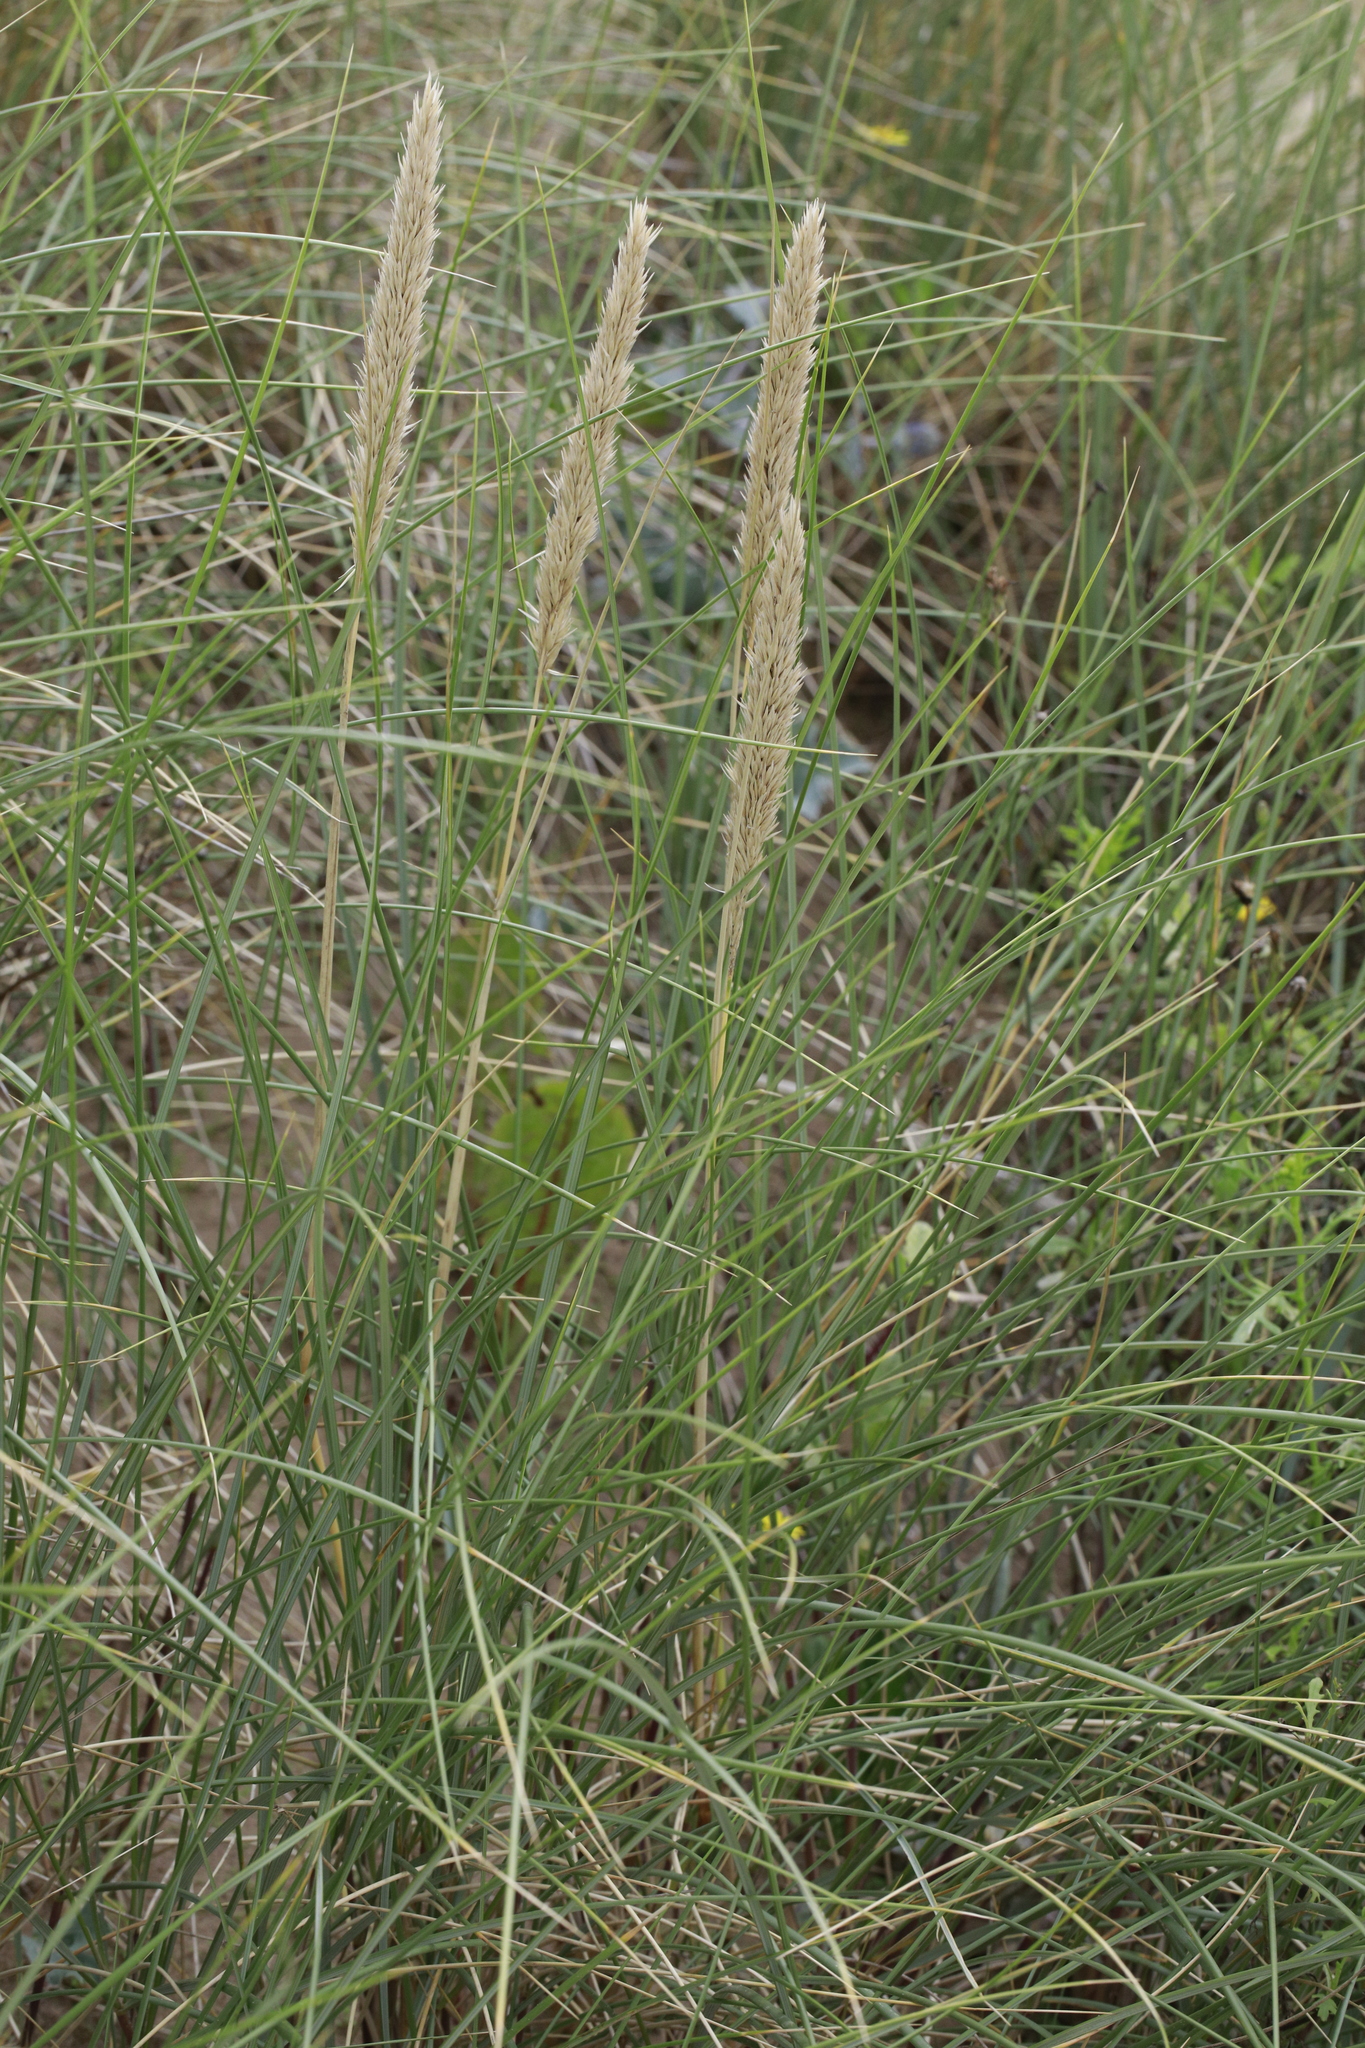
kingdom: Plantae
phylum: Tracheophyta
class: Liliopsida
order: Poales
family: Poaceae
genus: Calamagrostis
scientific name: Calamagrostis arenaria
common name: European beachgrass
